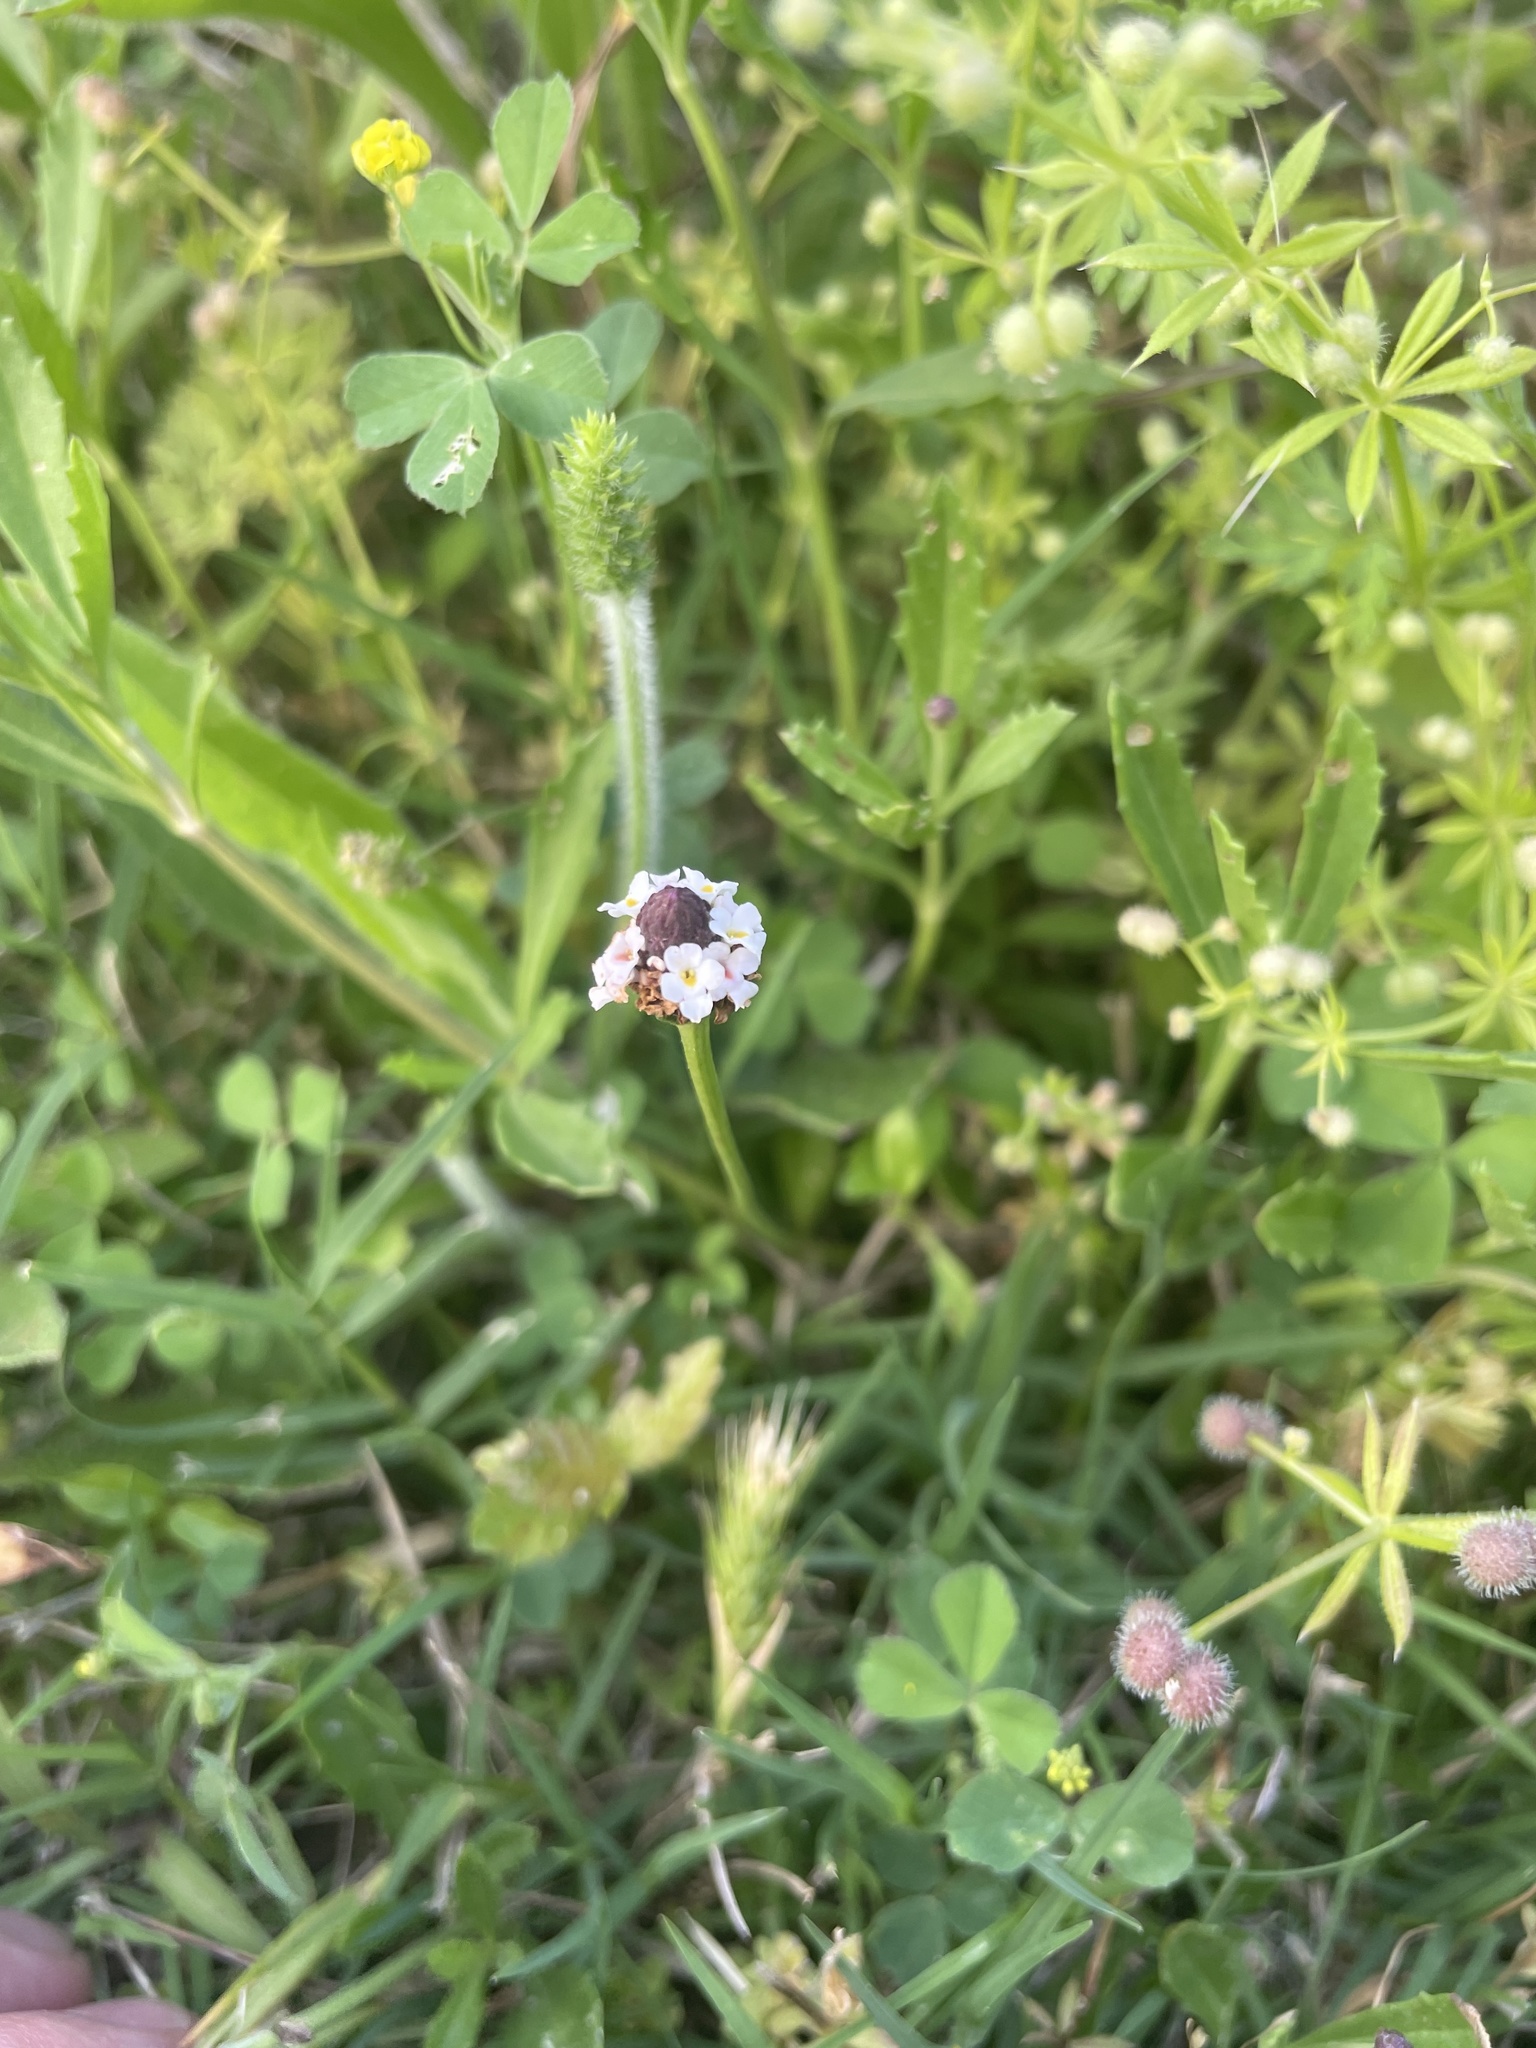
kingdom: Plantae
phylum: Tracheophyta
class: Magnoliopsida
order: Lamiales
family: Verbenaceae
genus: Phyla
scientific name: Phyla nodiflora
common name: Frogfruit
